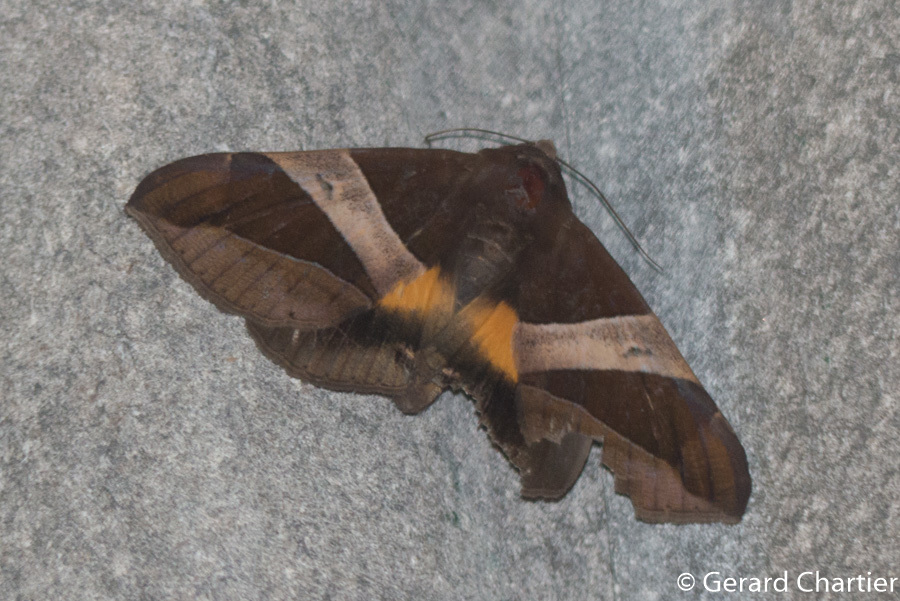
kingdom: Animalia
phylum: Arthropoda
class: Insecta
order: Lepidoptera
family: Erebidae
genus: Bastilla
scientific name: Bastilla fulvotaenia
